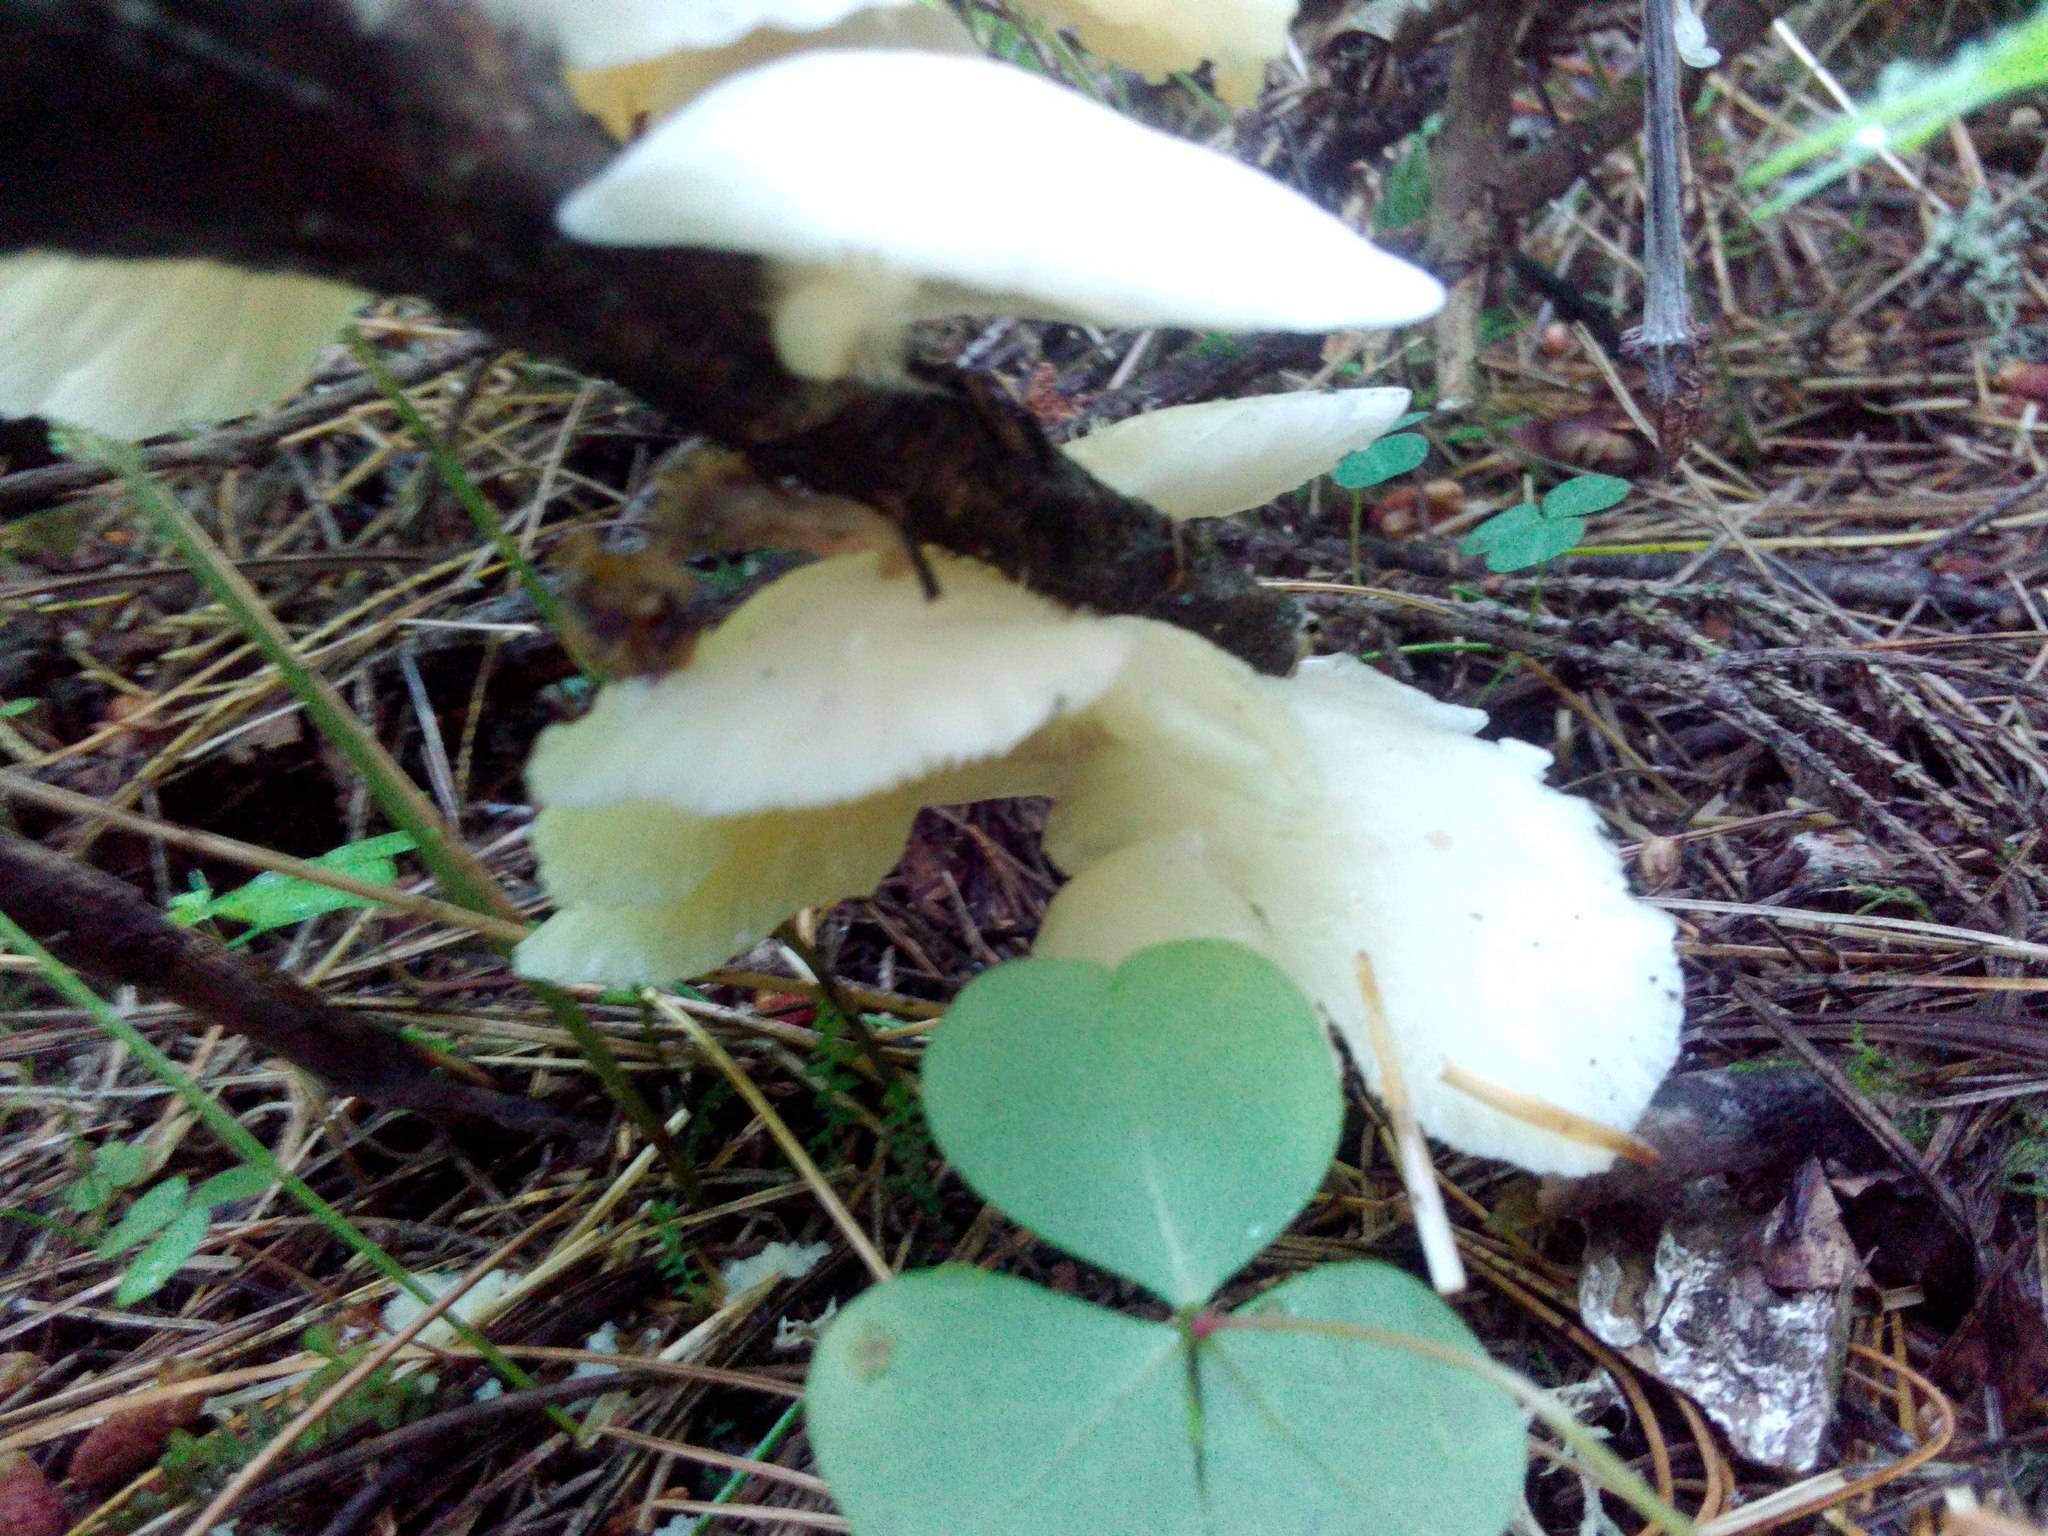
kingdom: Fungi
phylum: Basidiomycota
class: Agaricomycetes
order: Agaricales
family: Pleurotaceae
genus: Pleurotus
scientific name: Pleurotus pulmonarius
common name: Pale oyster
